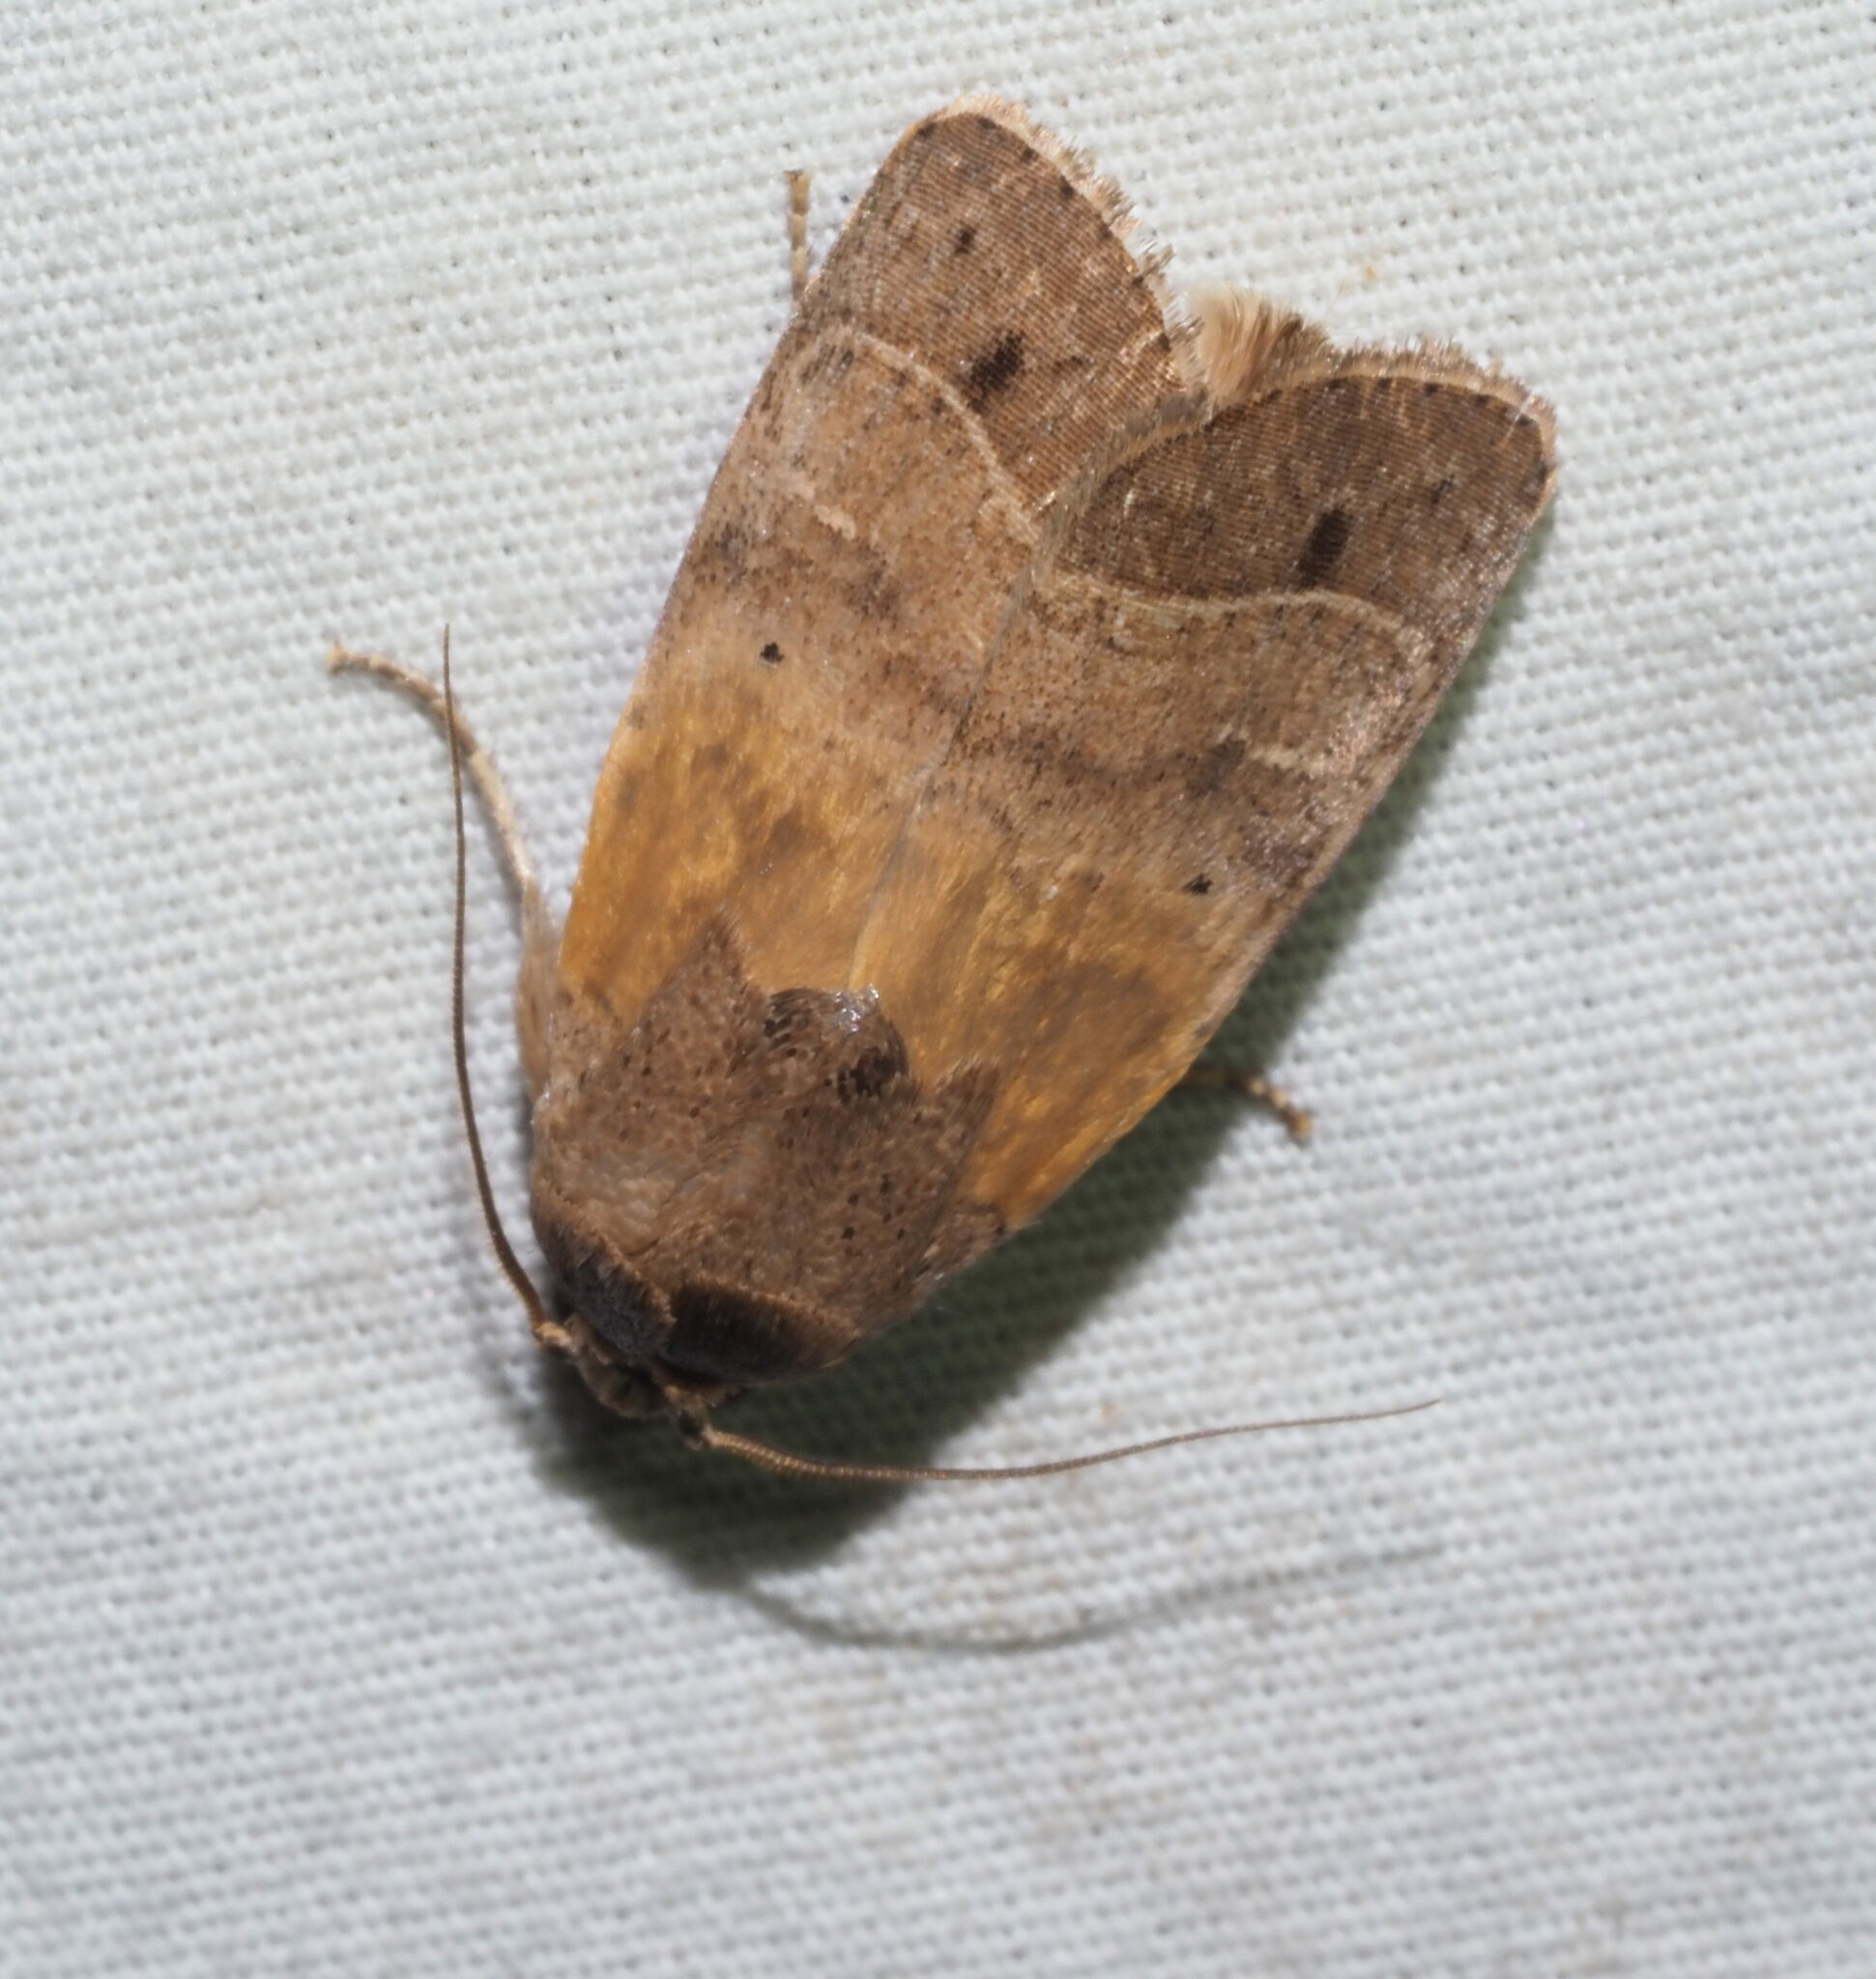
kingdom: Animalia
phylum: Arthropoda
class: Insecta
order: Lepidoptera
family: Noctuidae
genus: Athetis
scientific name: Athetis thoracica
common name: Cutworm
